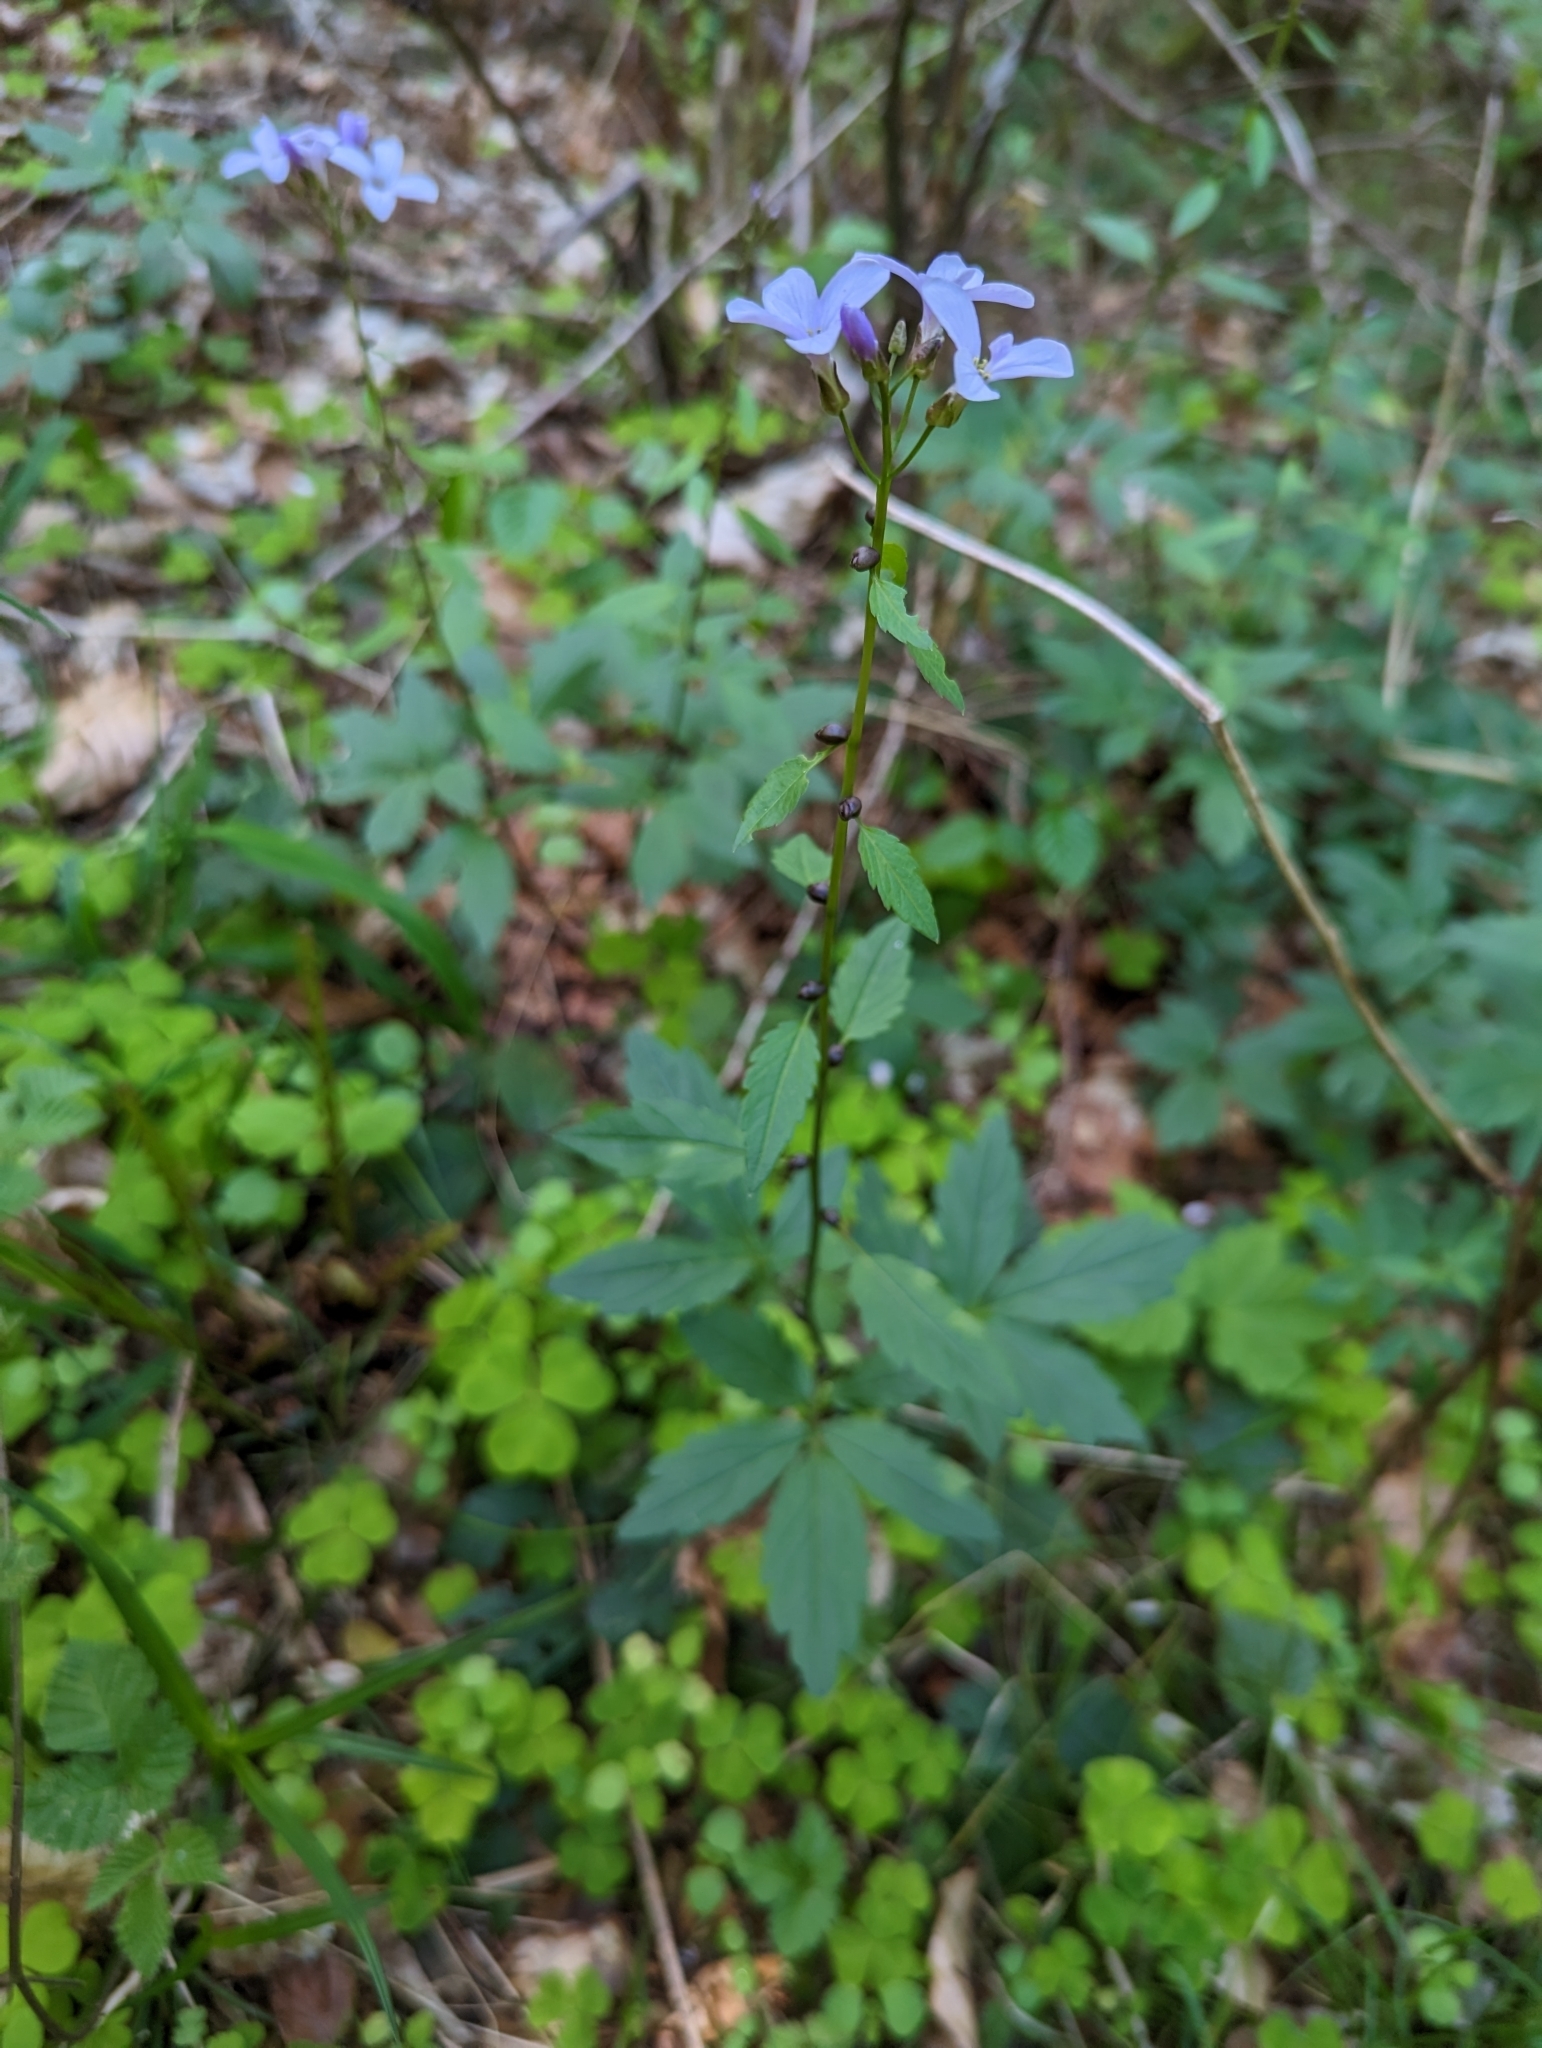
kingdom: Plantae
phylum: Tracheophyta
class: Magnoliopsida
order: Brassicales
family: Brassicaceae
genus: Cardamine
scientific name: Cardamine bulbifera
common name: Coralroot bittercress
